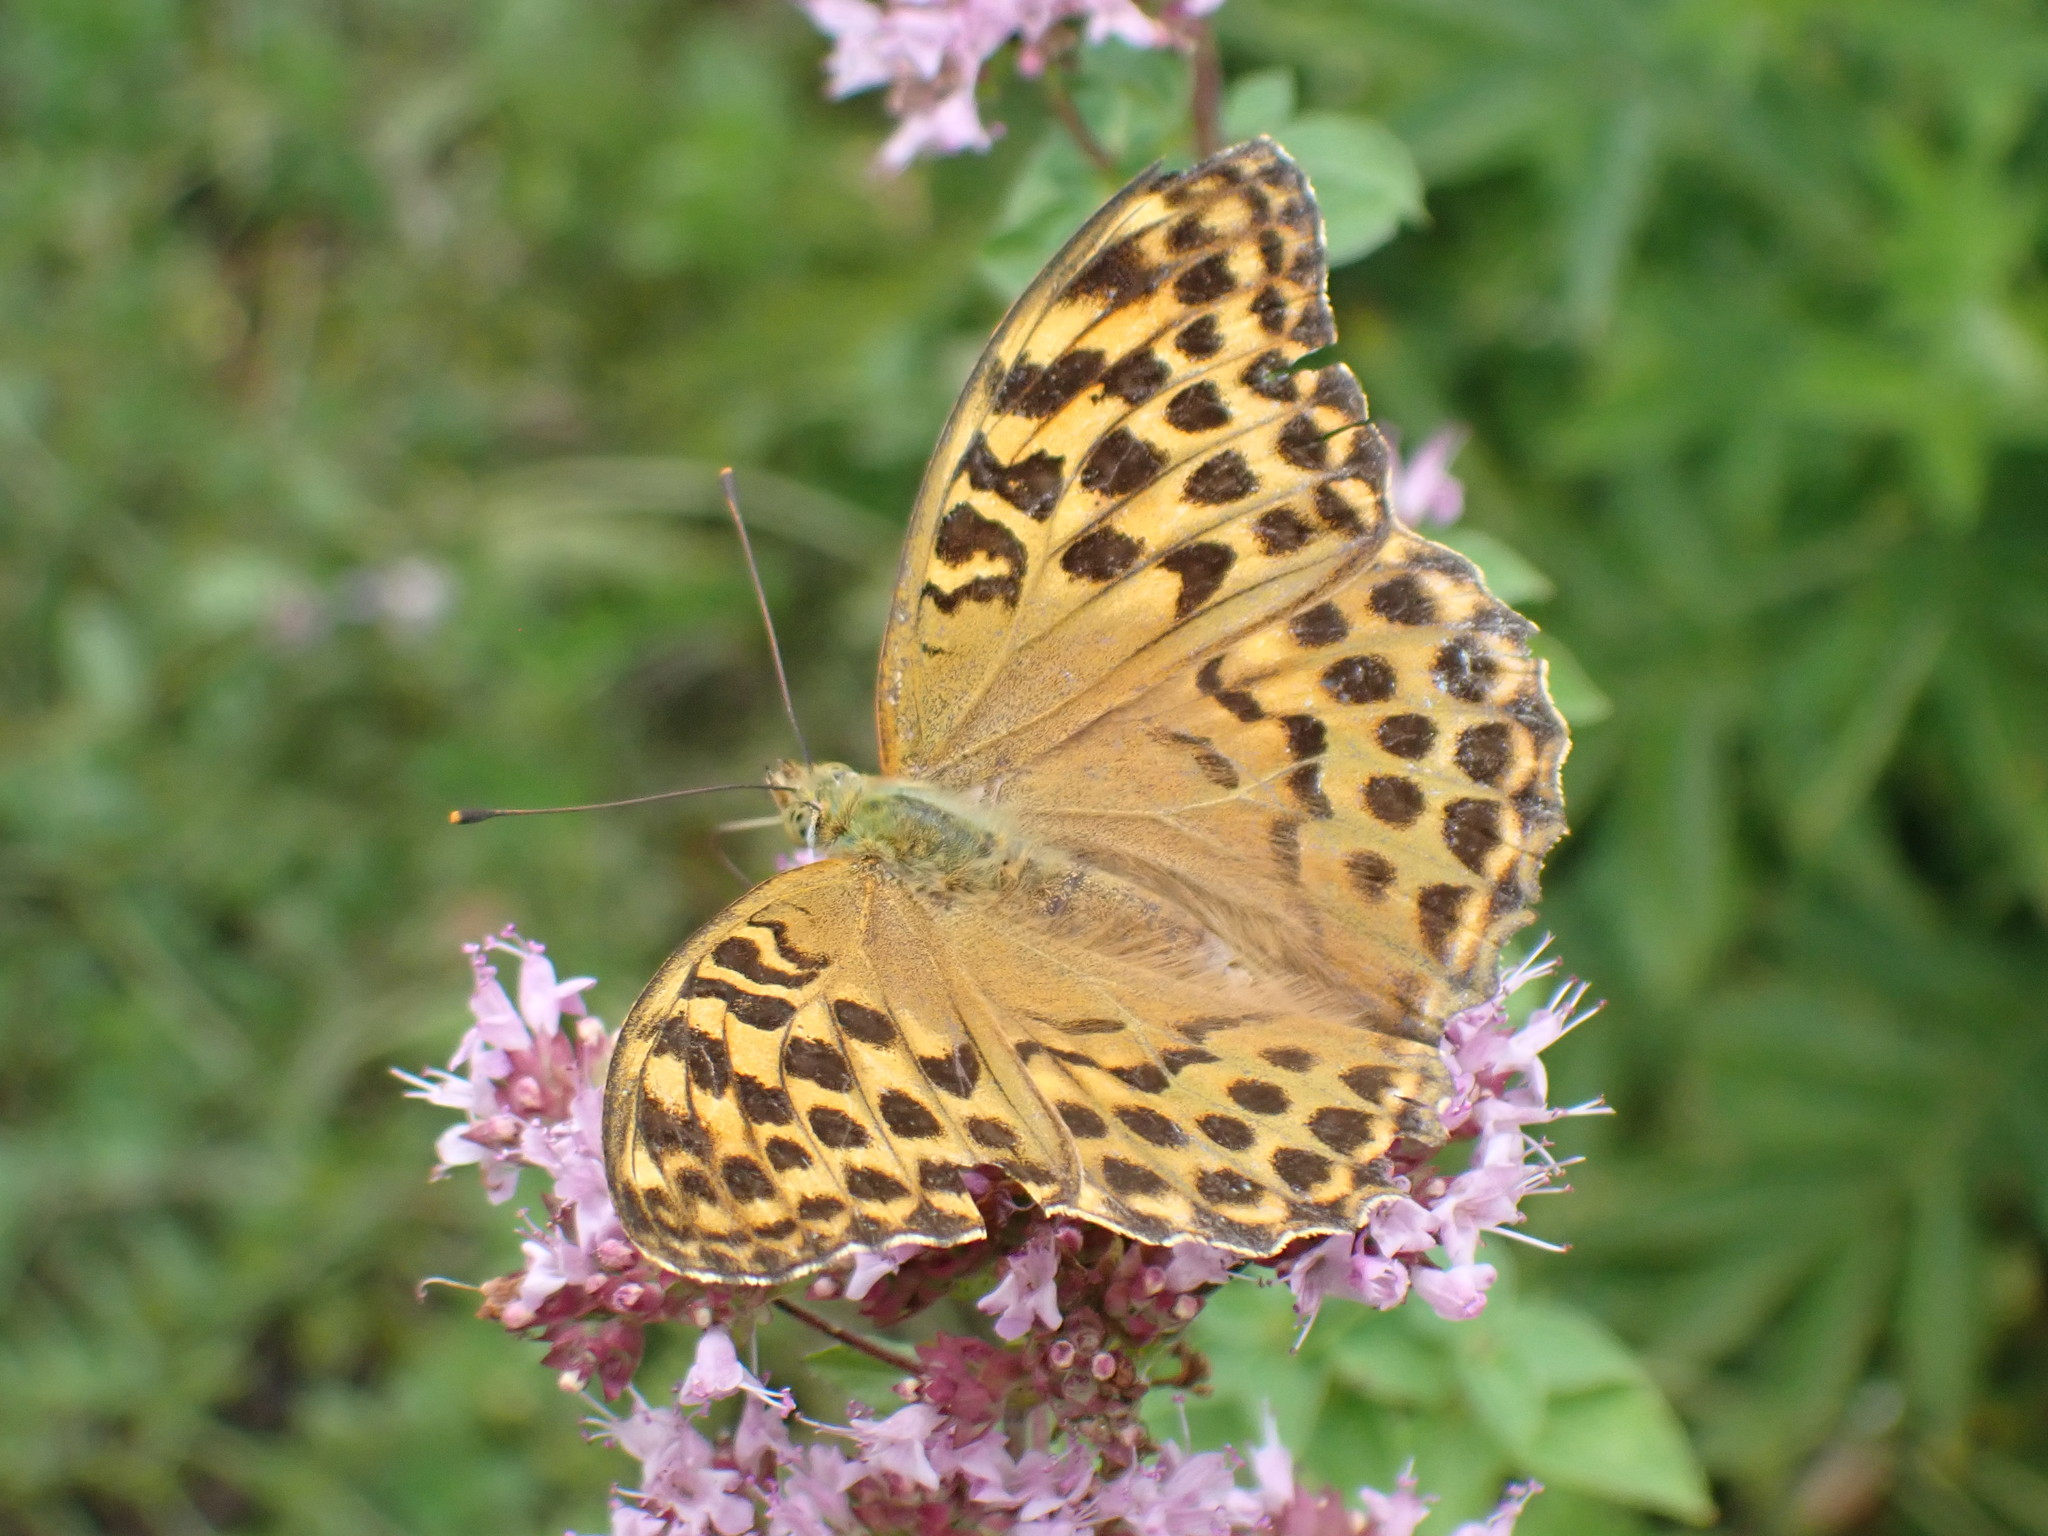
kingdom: Animalia
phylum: Arthropoda
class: Insecta
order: Lepidoptera
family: Nymphalidae
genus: Argynnis
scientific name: Argynnis paphia
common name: Silver-washed fritillary
